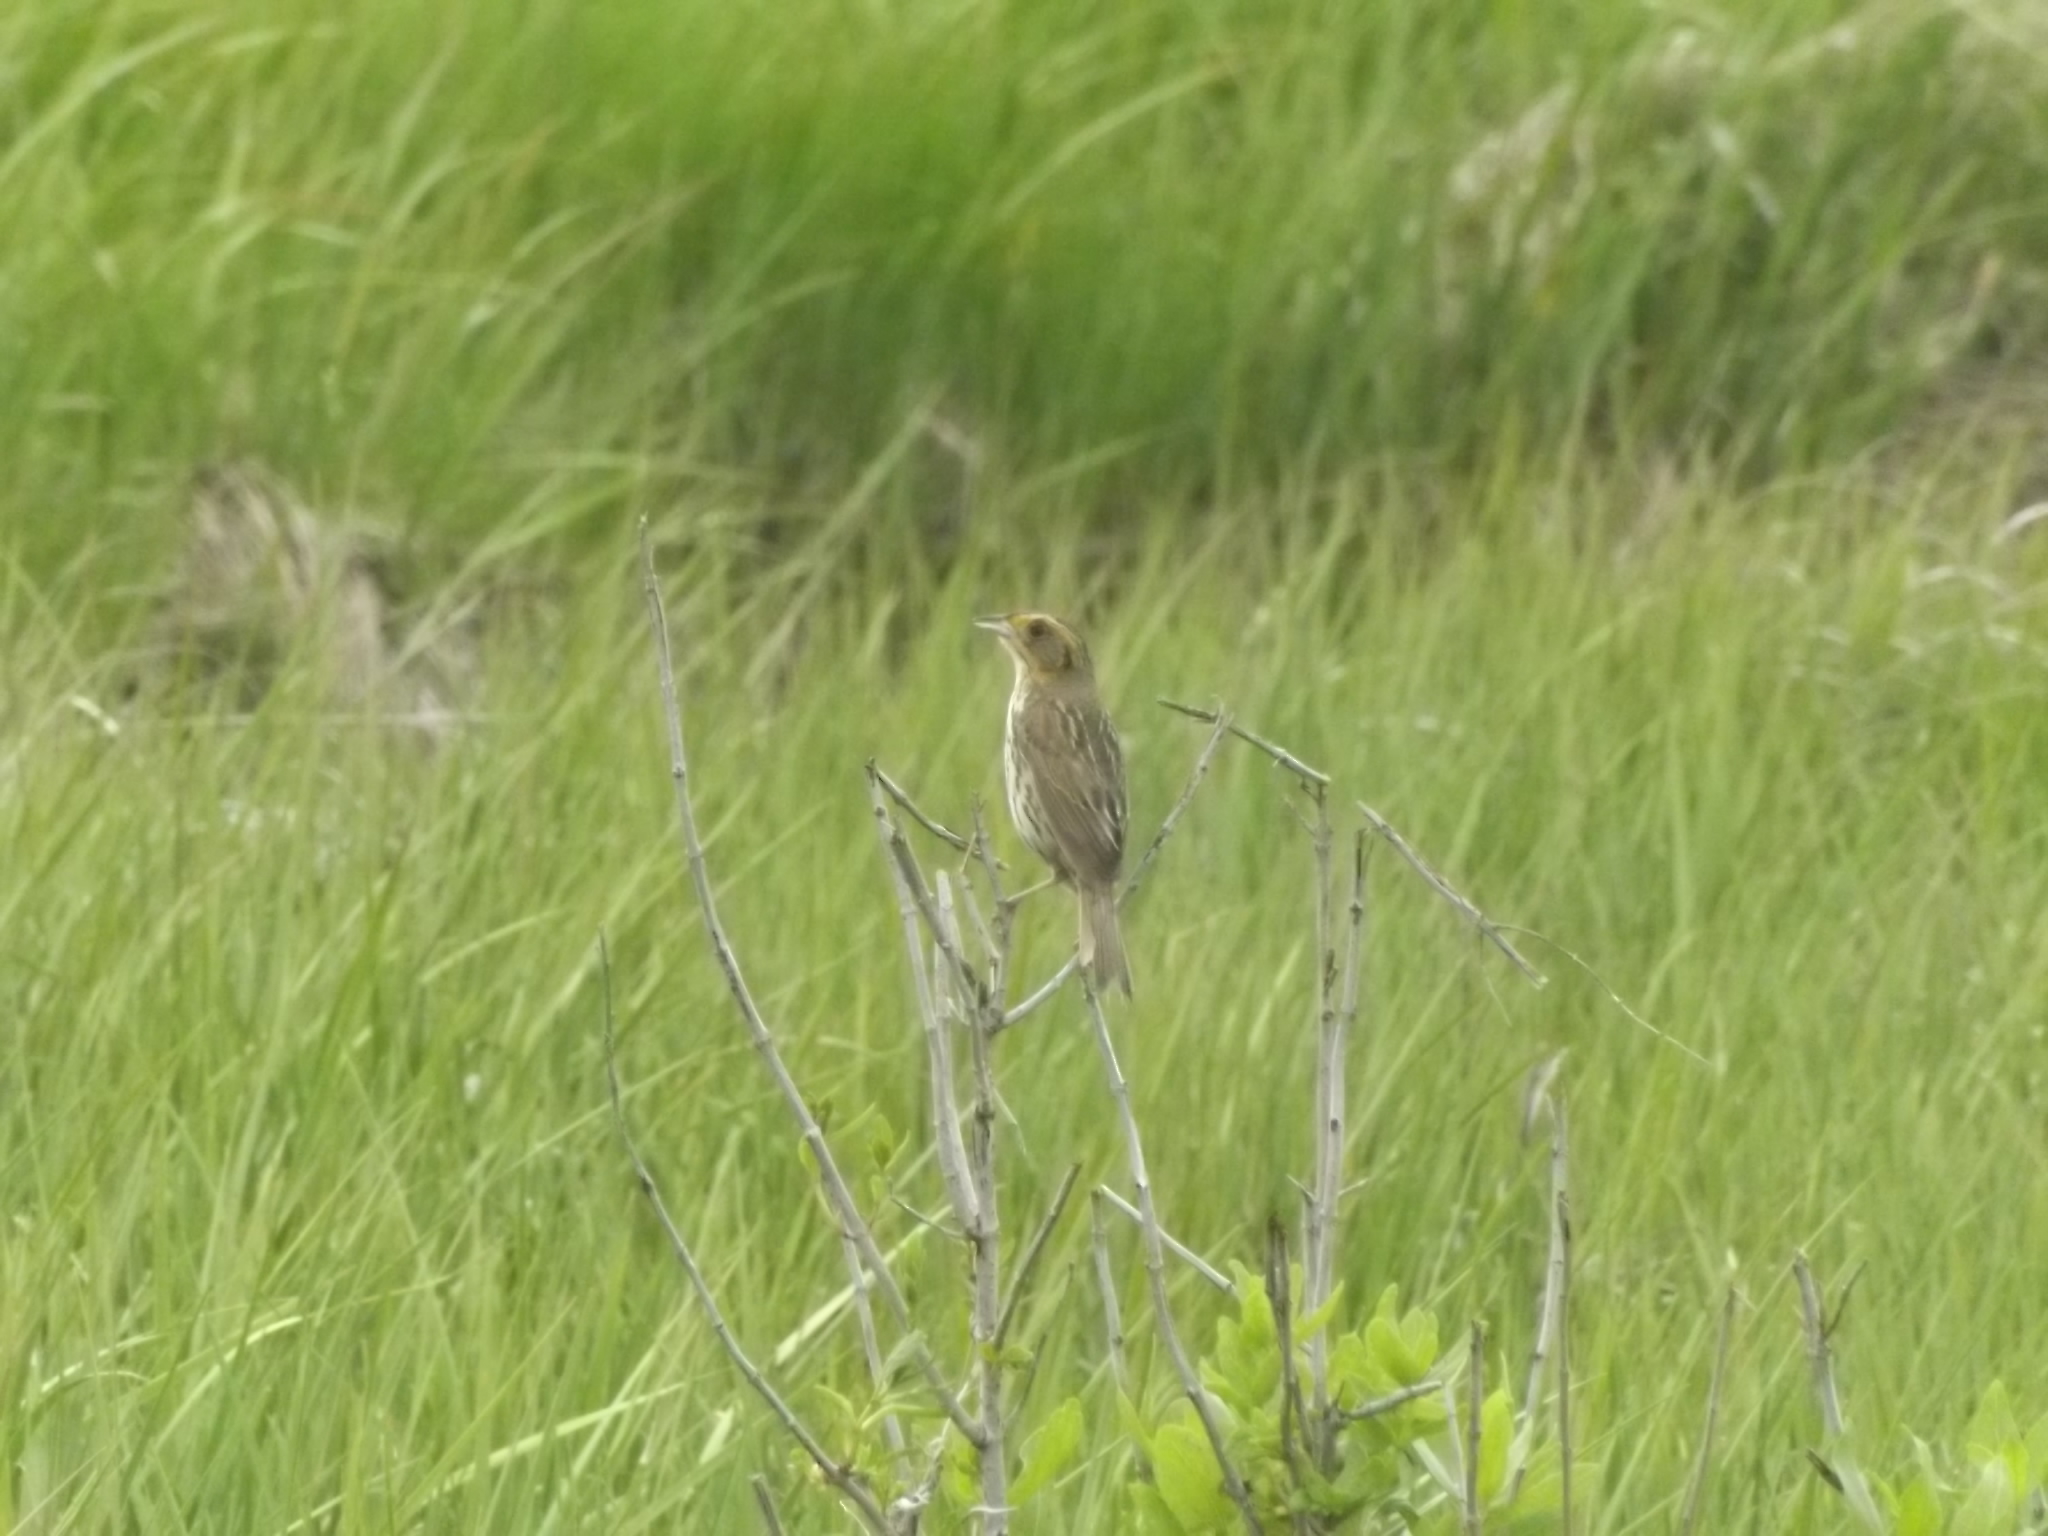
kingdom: Animalia
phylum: Chordata
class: Aves
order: Passeriformes
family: Passerellidae
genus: Ammospiza
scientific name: Ammospiza caudacuta
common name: Saltmarsh sparrow
